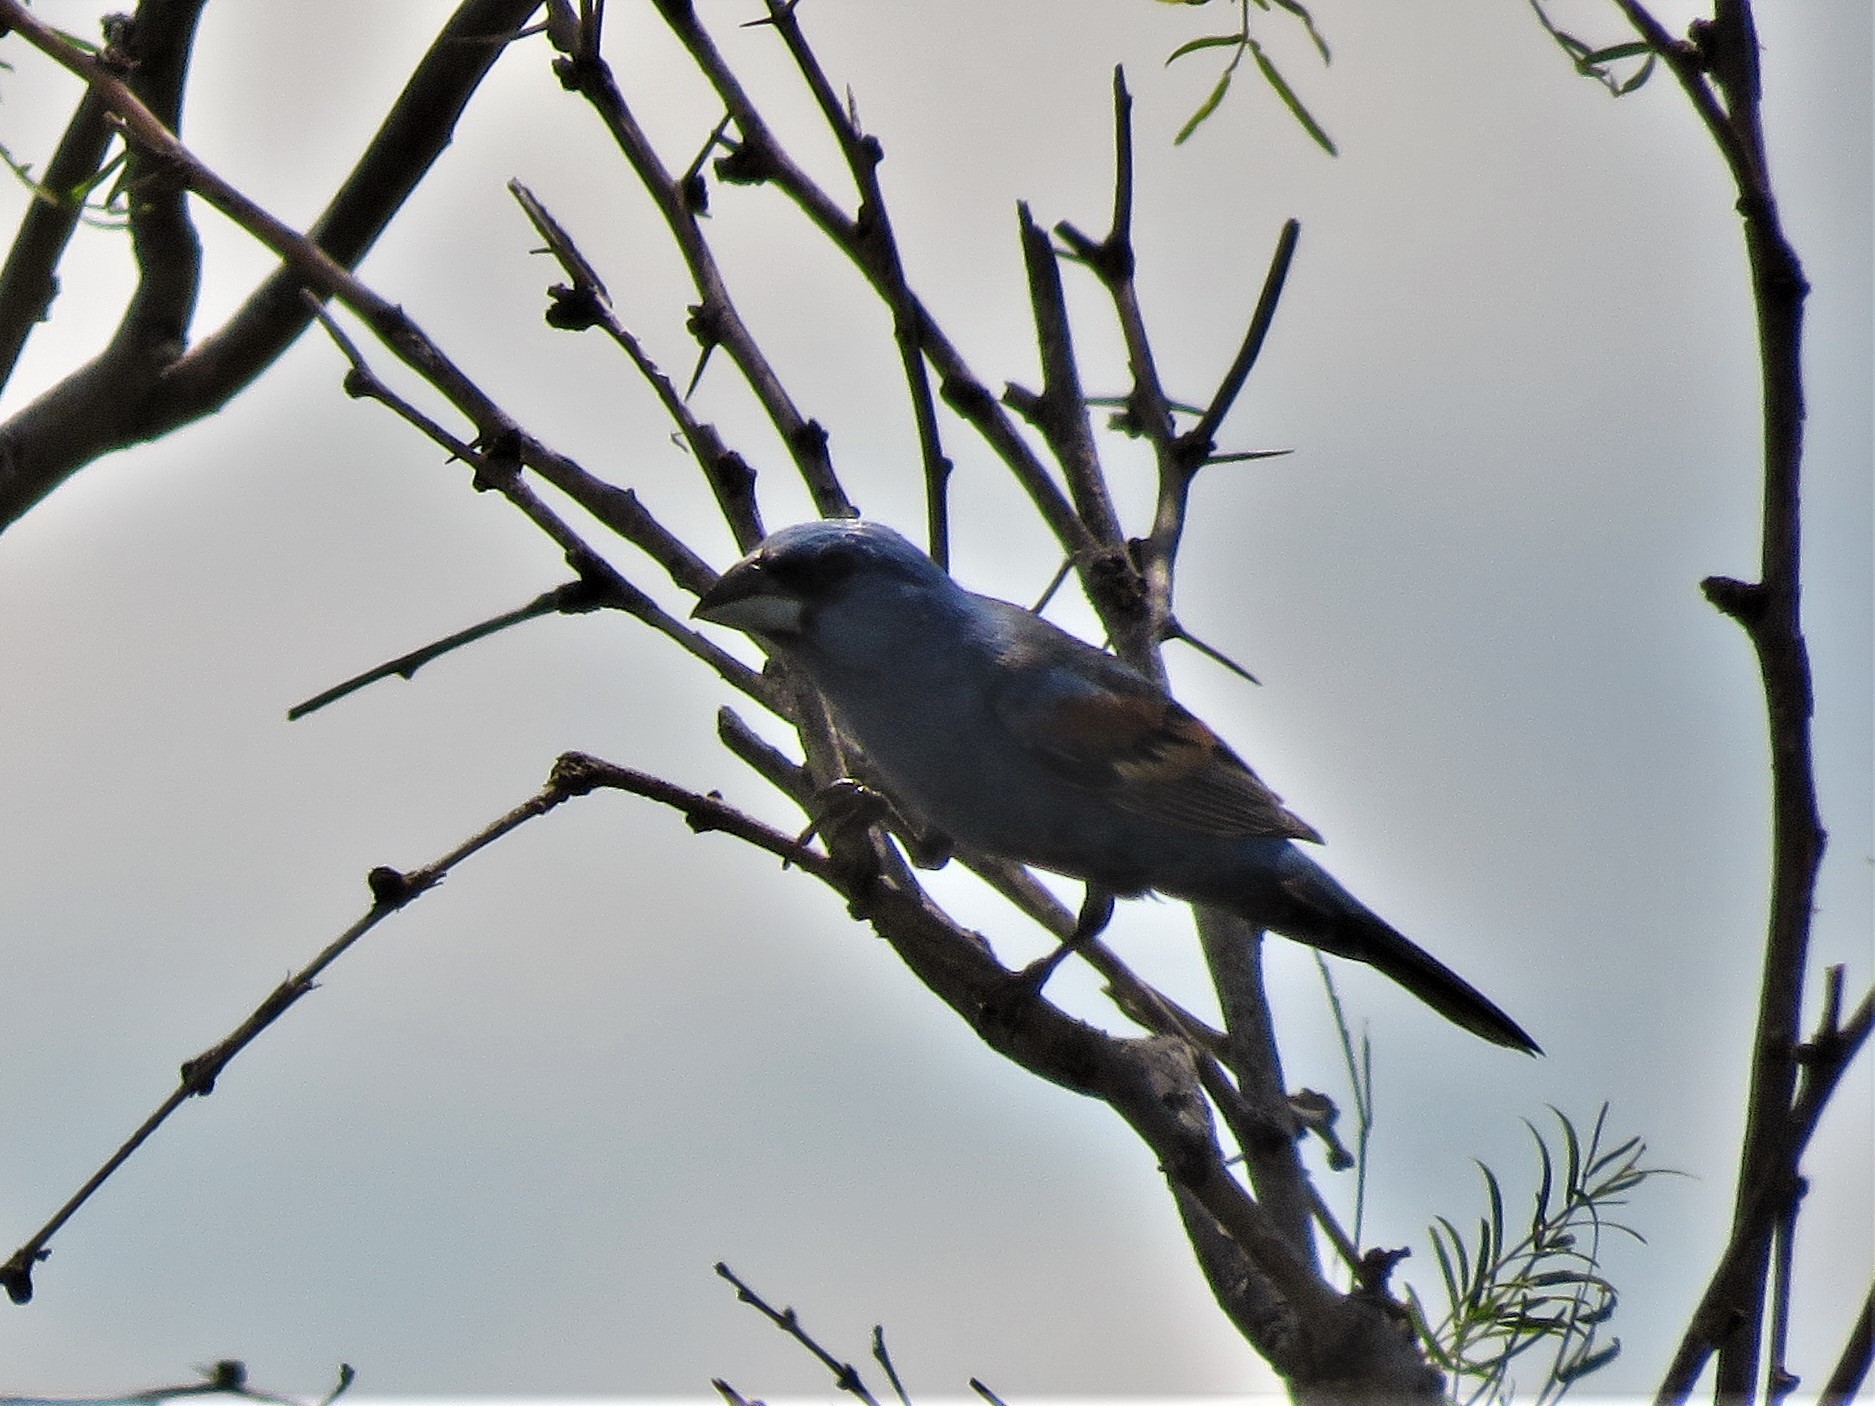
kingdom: Animalia
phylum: Chordata
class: Aves
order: Passeriformes
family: Cardinalidae
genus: Passerina
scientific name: Passerina caerulea
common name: Blue grosbeak
